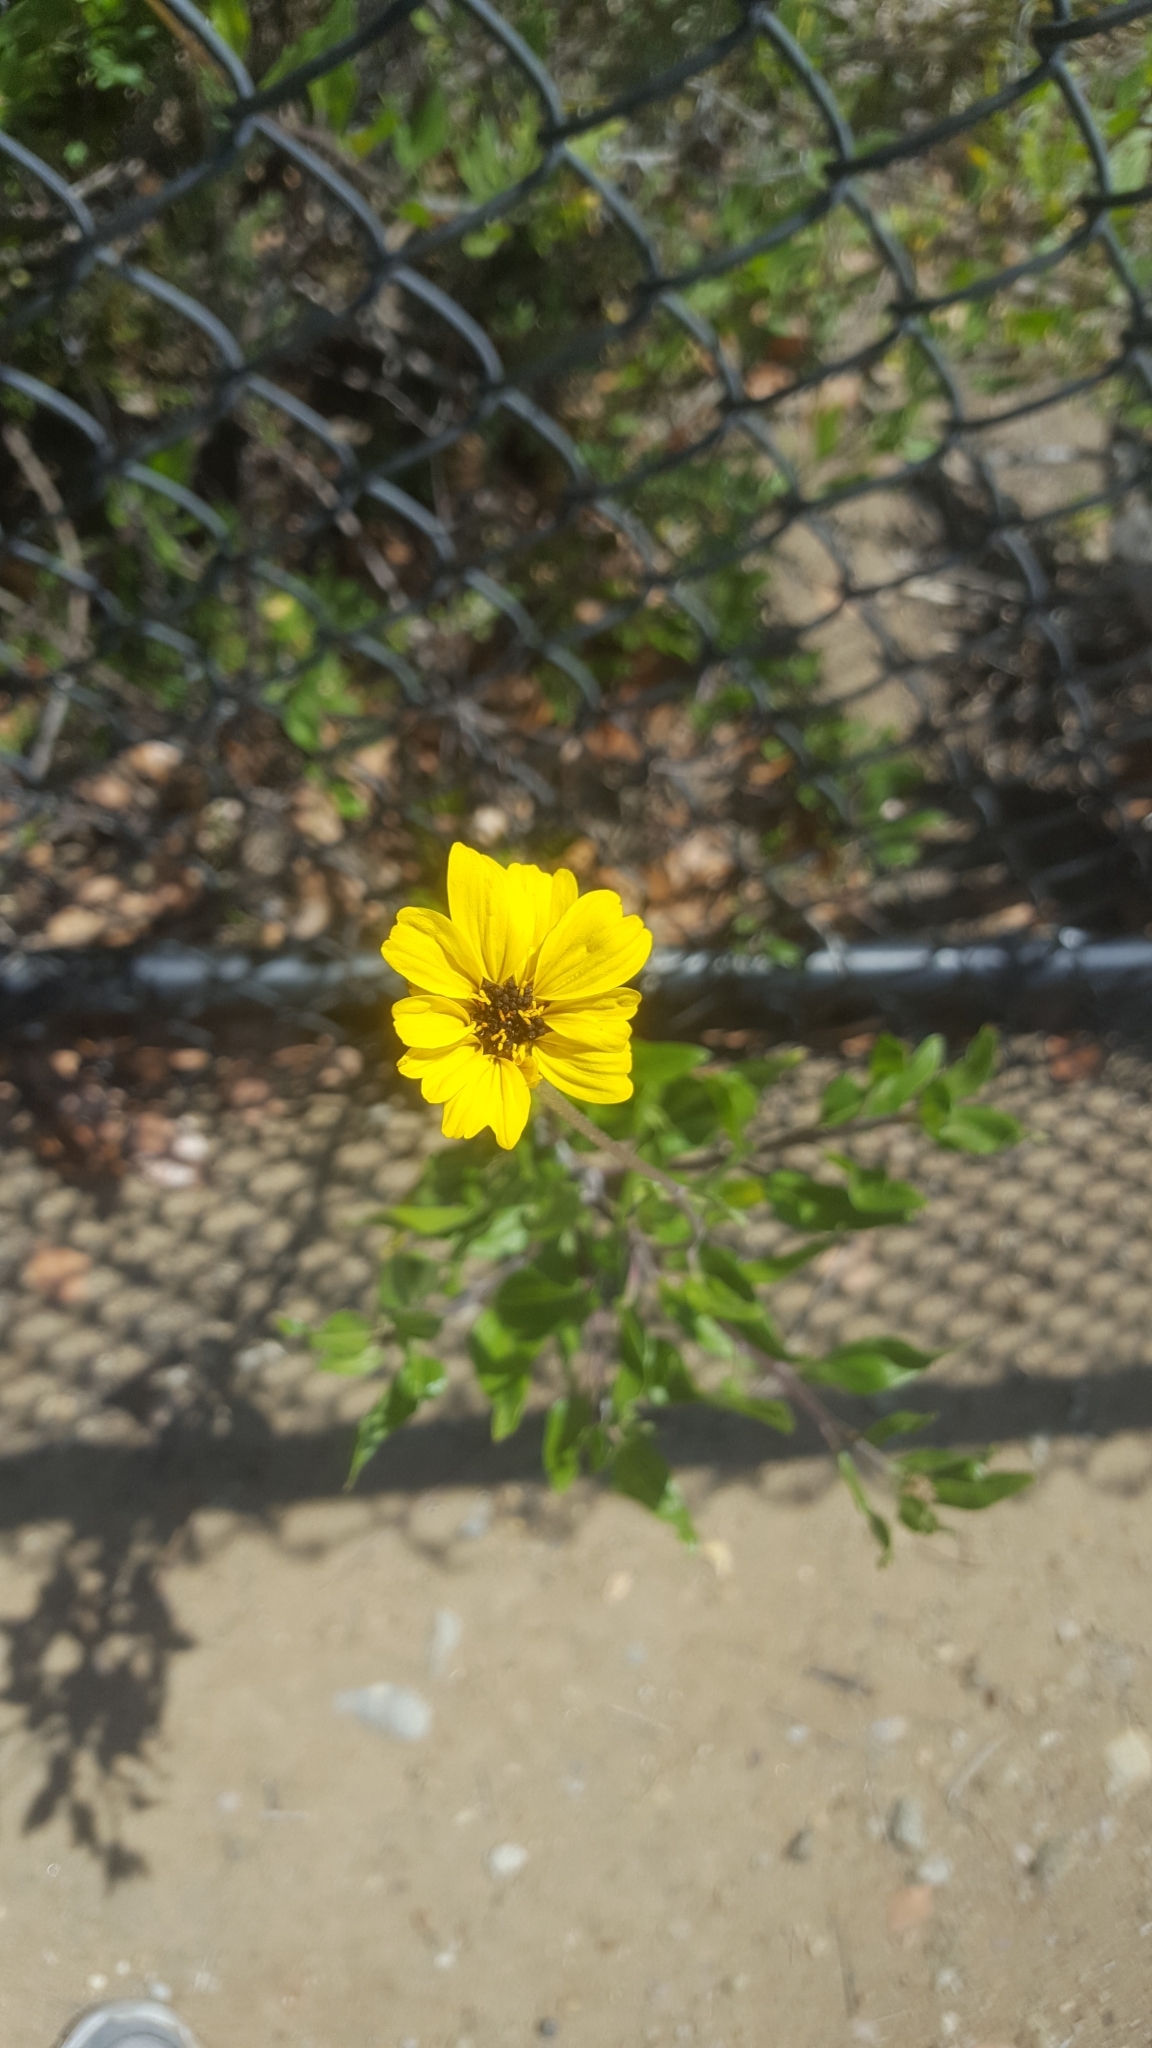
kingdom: Plantae
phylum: Tracheophyta
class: Magnoliopsida
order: Asterales
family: Asteraceae
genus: Encelia
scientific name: Encelia californica
